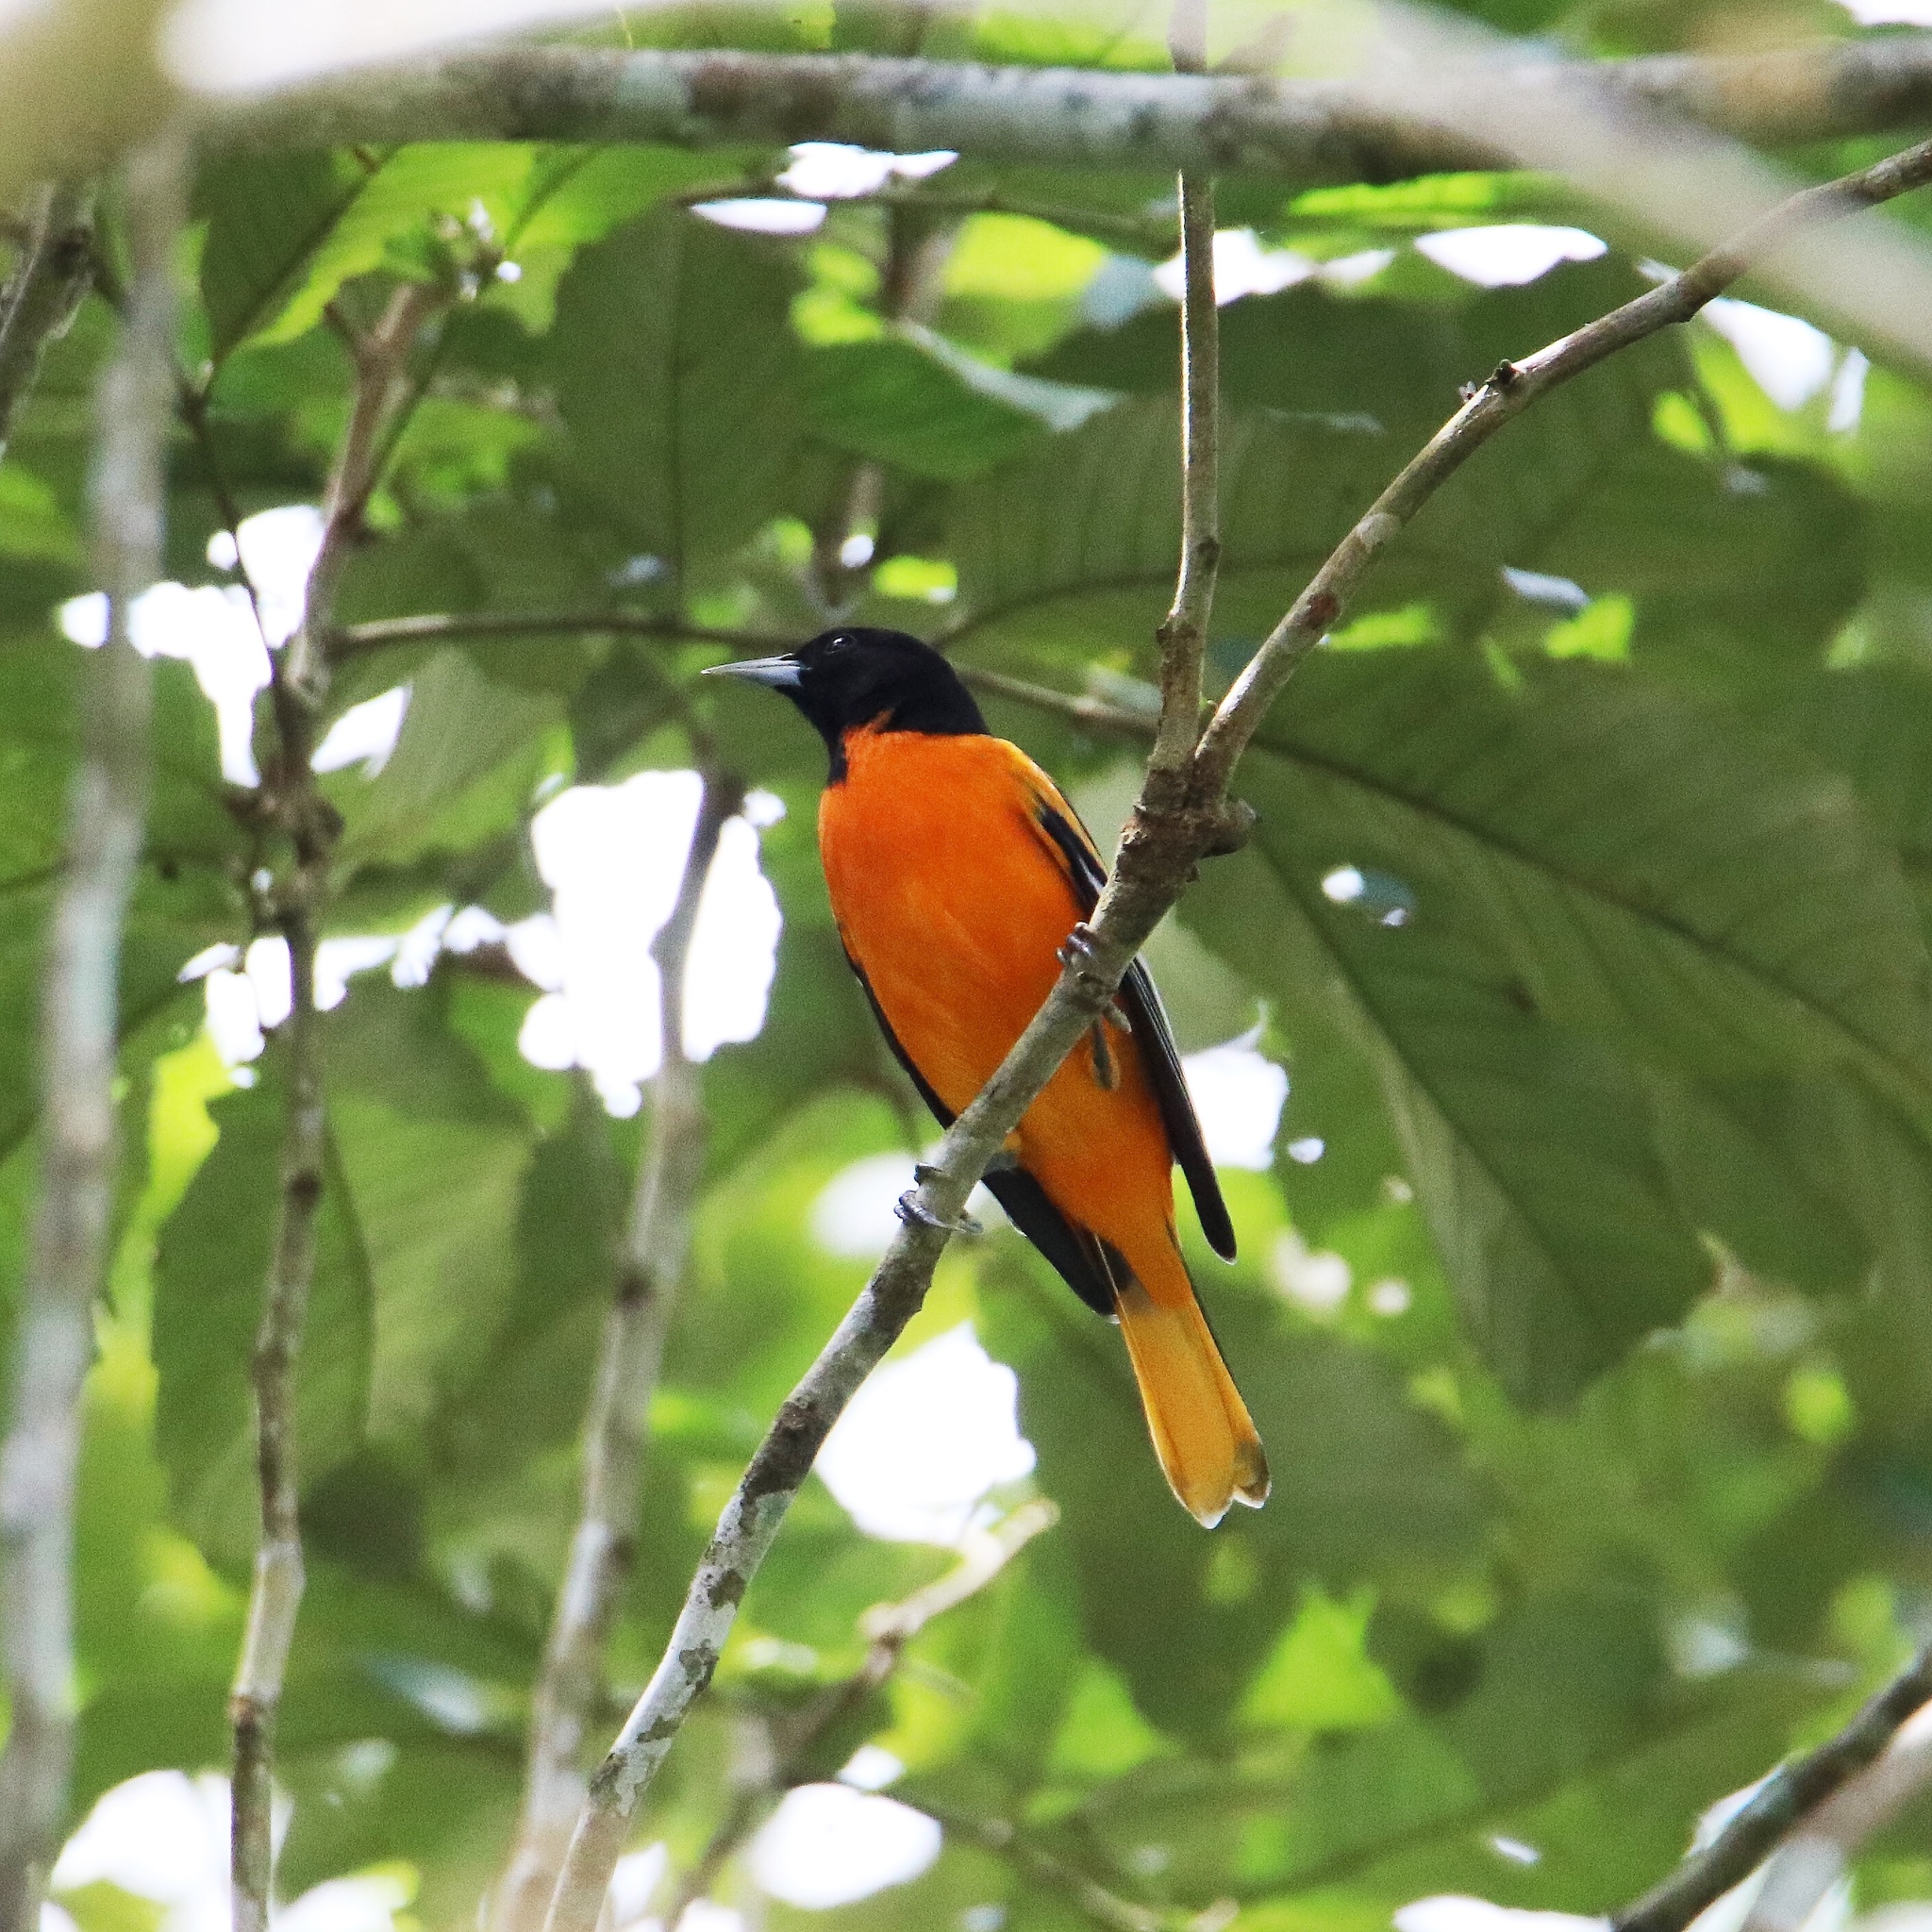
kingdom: Animalia
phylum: Chordata
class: Aves
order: Passeriformes
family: Icteridae
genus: Icterus
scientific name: Icterus galbula
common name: Baltimore oriole
